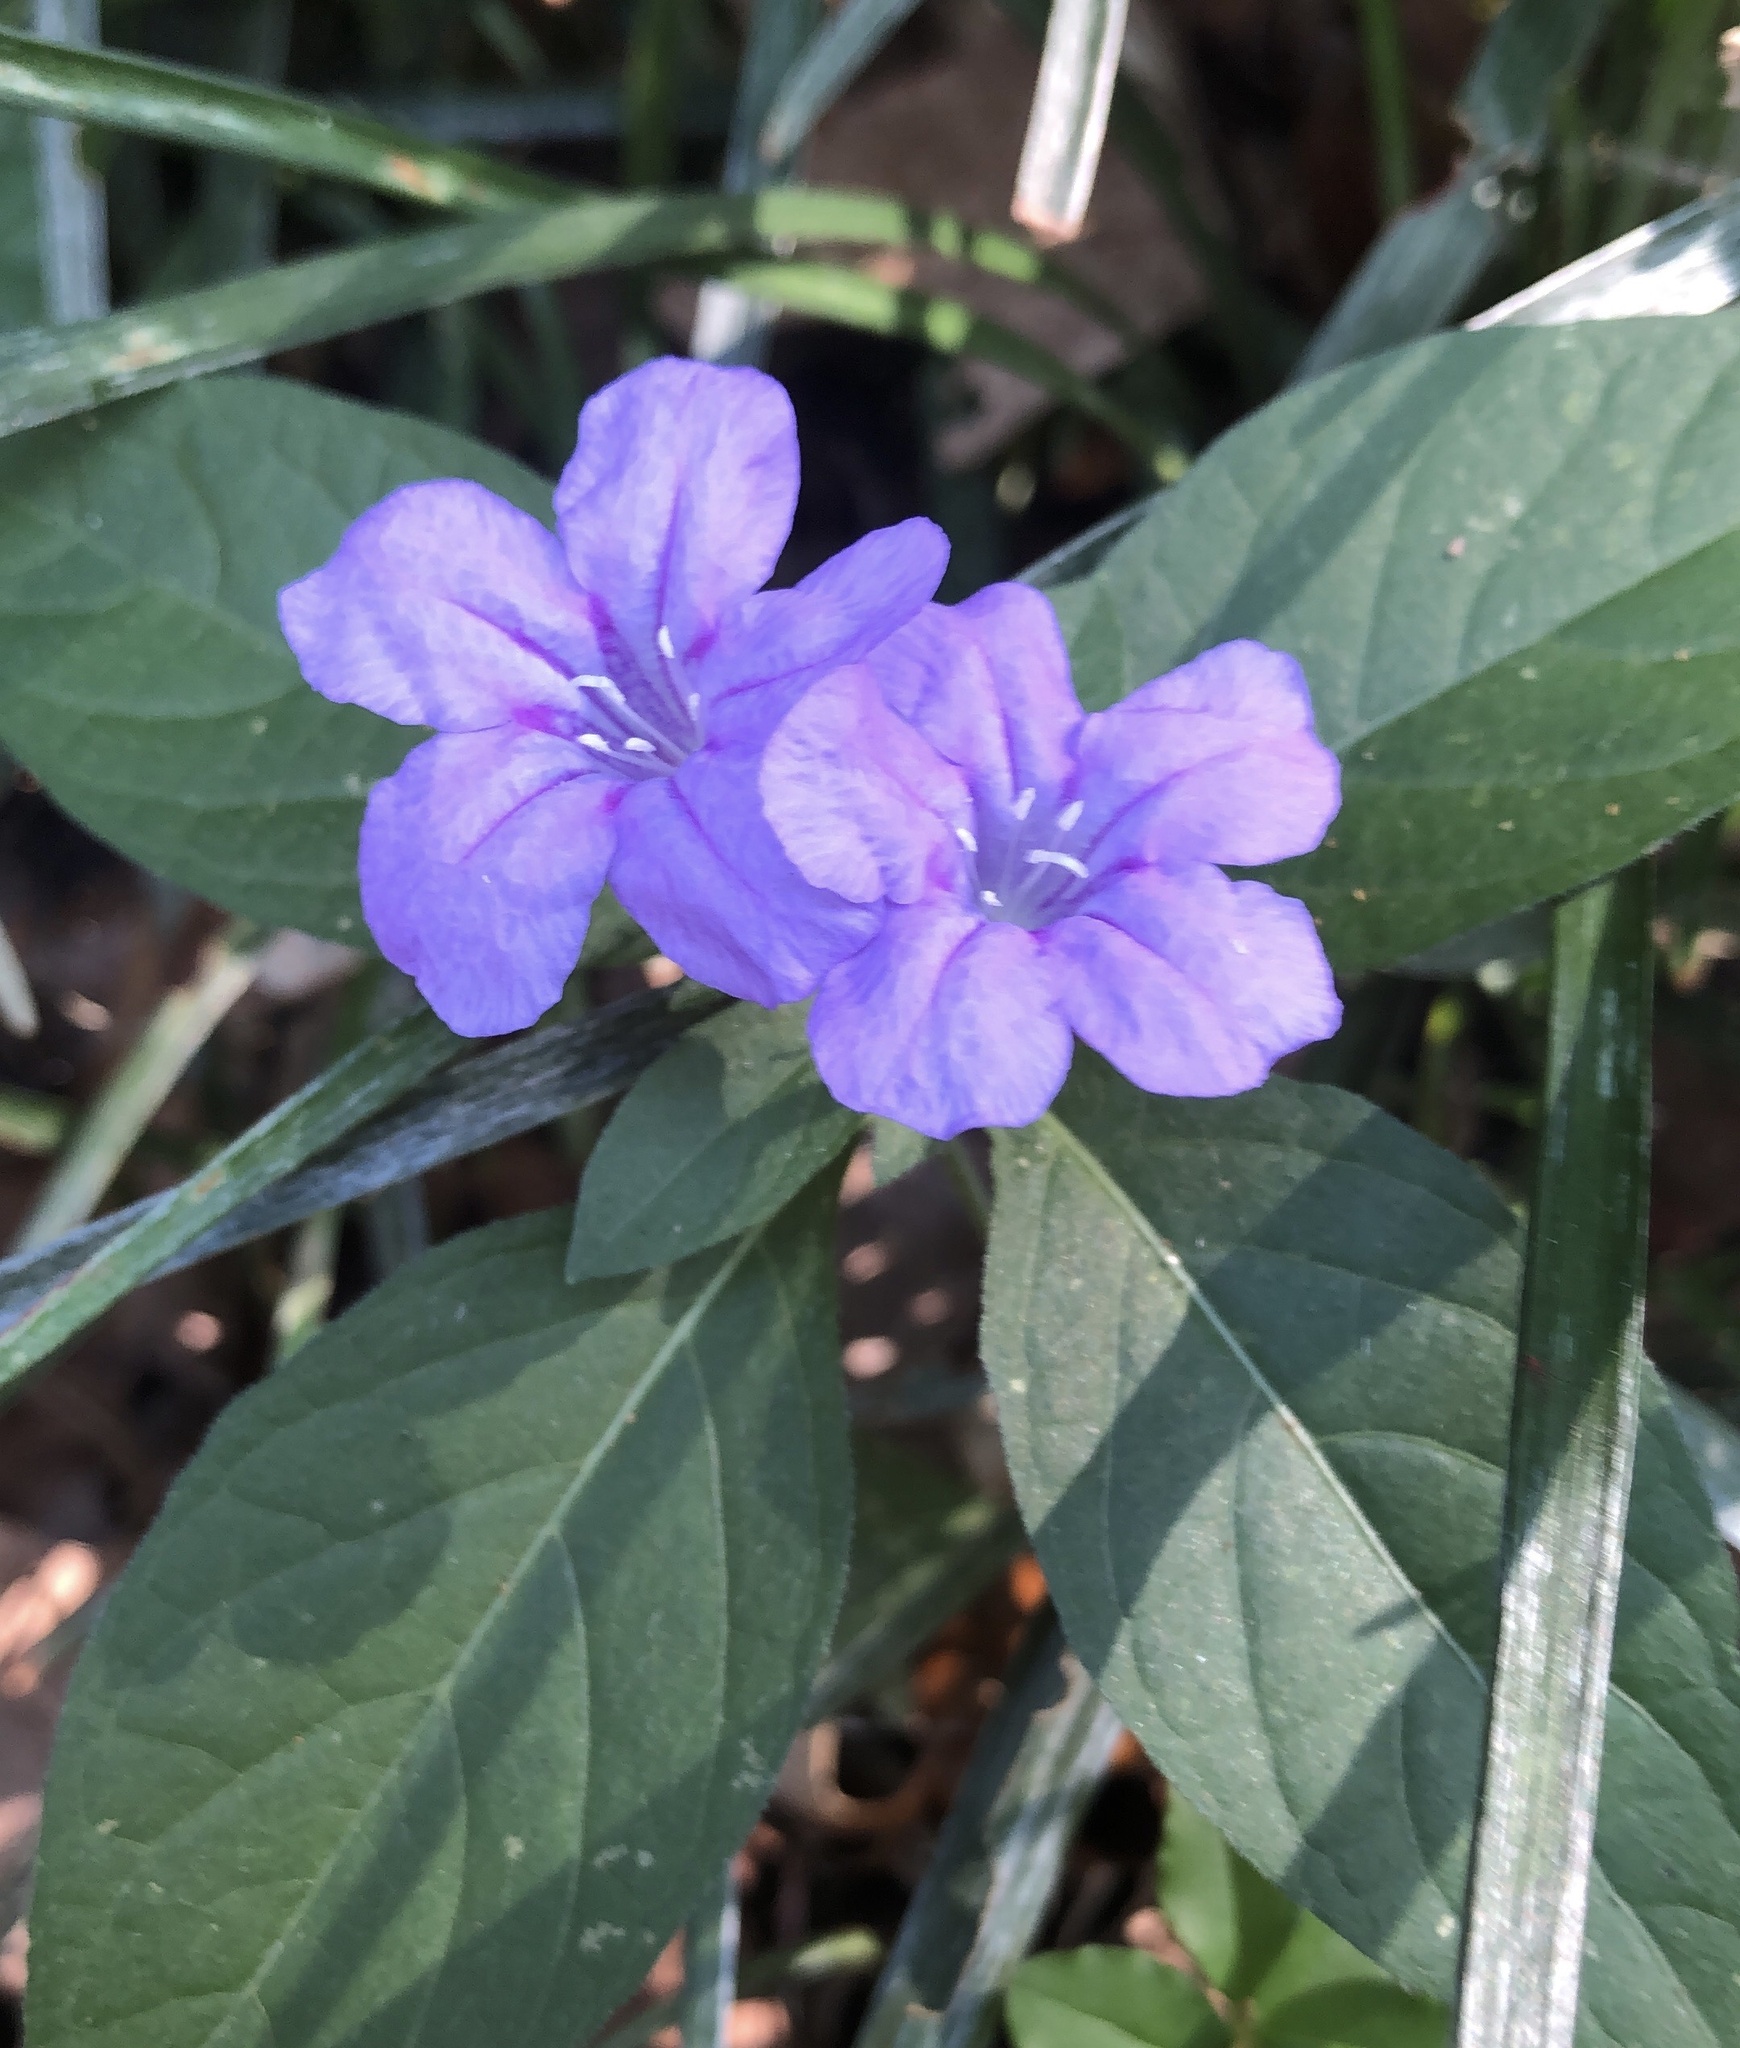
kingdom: Plantae
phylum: Tracheophyta
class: Magnoliopsida
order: Lamiales
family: Acanthaceae
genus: Ruellia
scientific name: Ruellia caroliniensis
